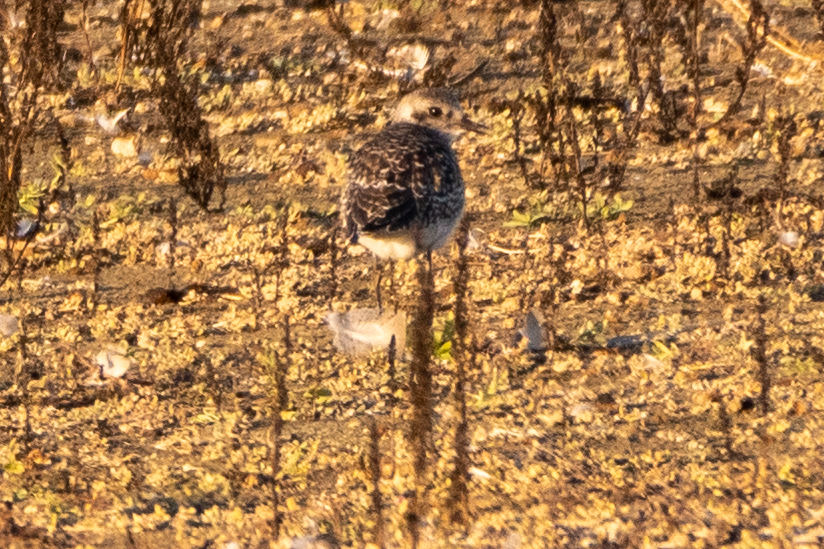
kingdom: Animalia
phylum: Chordata
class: Aves
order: Charadriiformes
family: Charadriidae
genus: Pluvialis
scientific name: Pluvialis squatarola
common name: Grey plover
